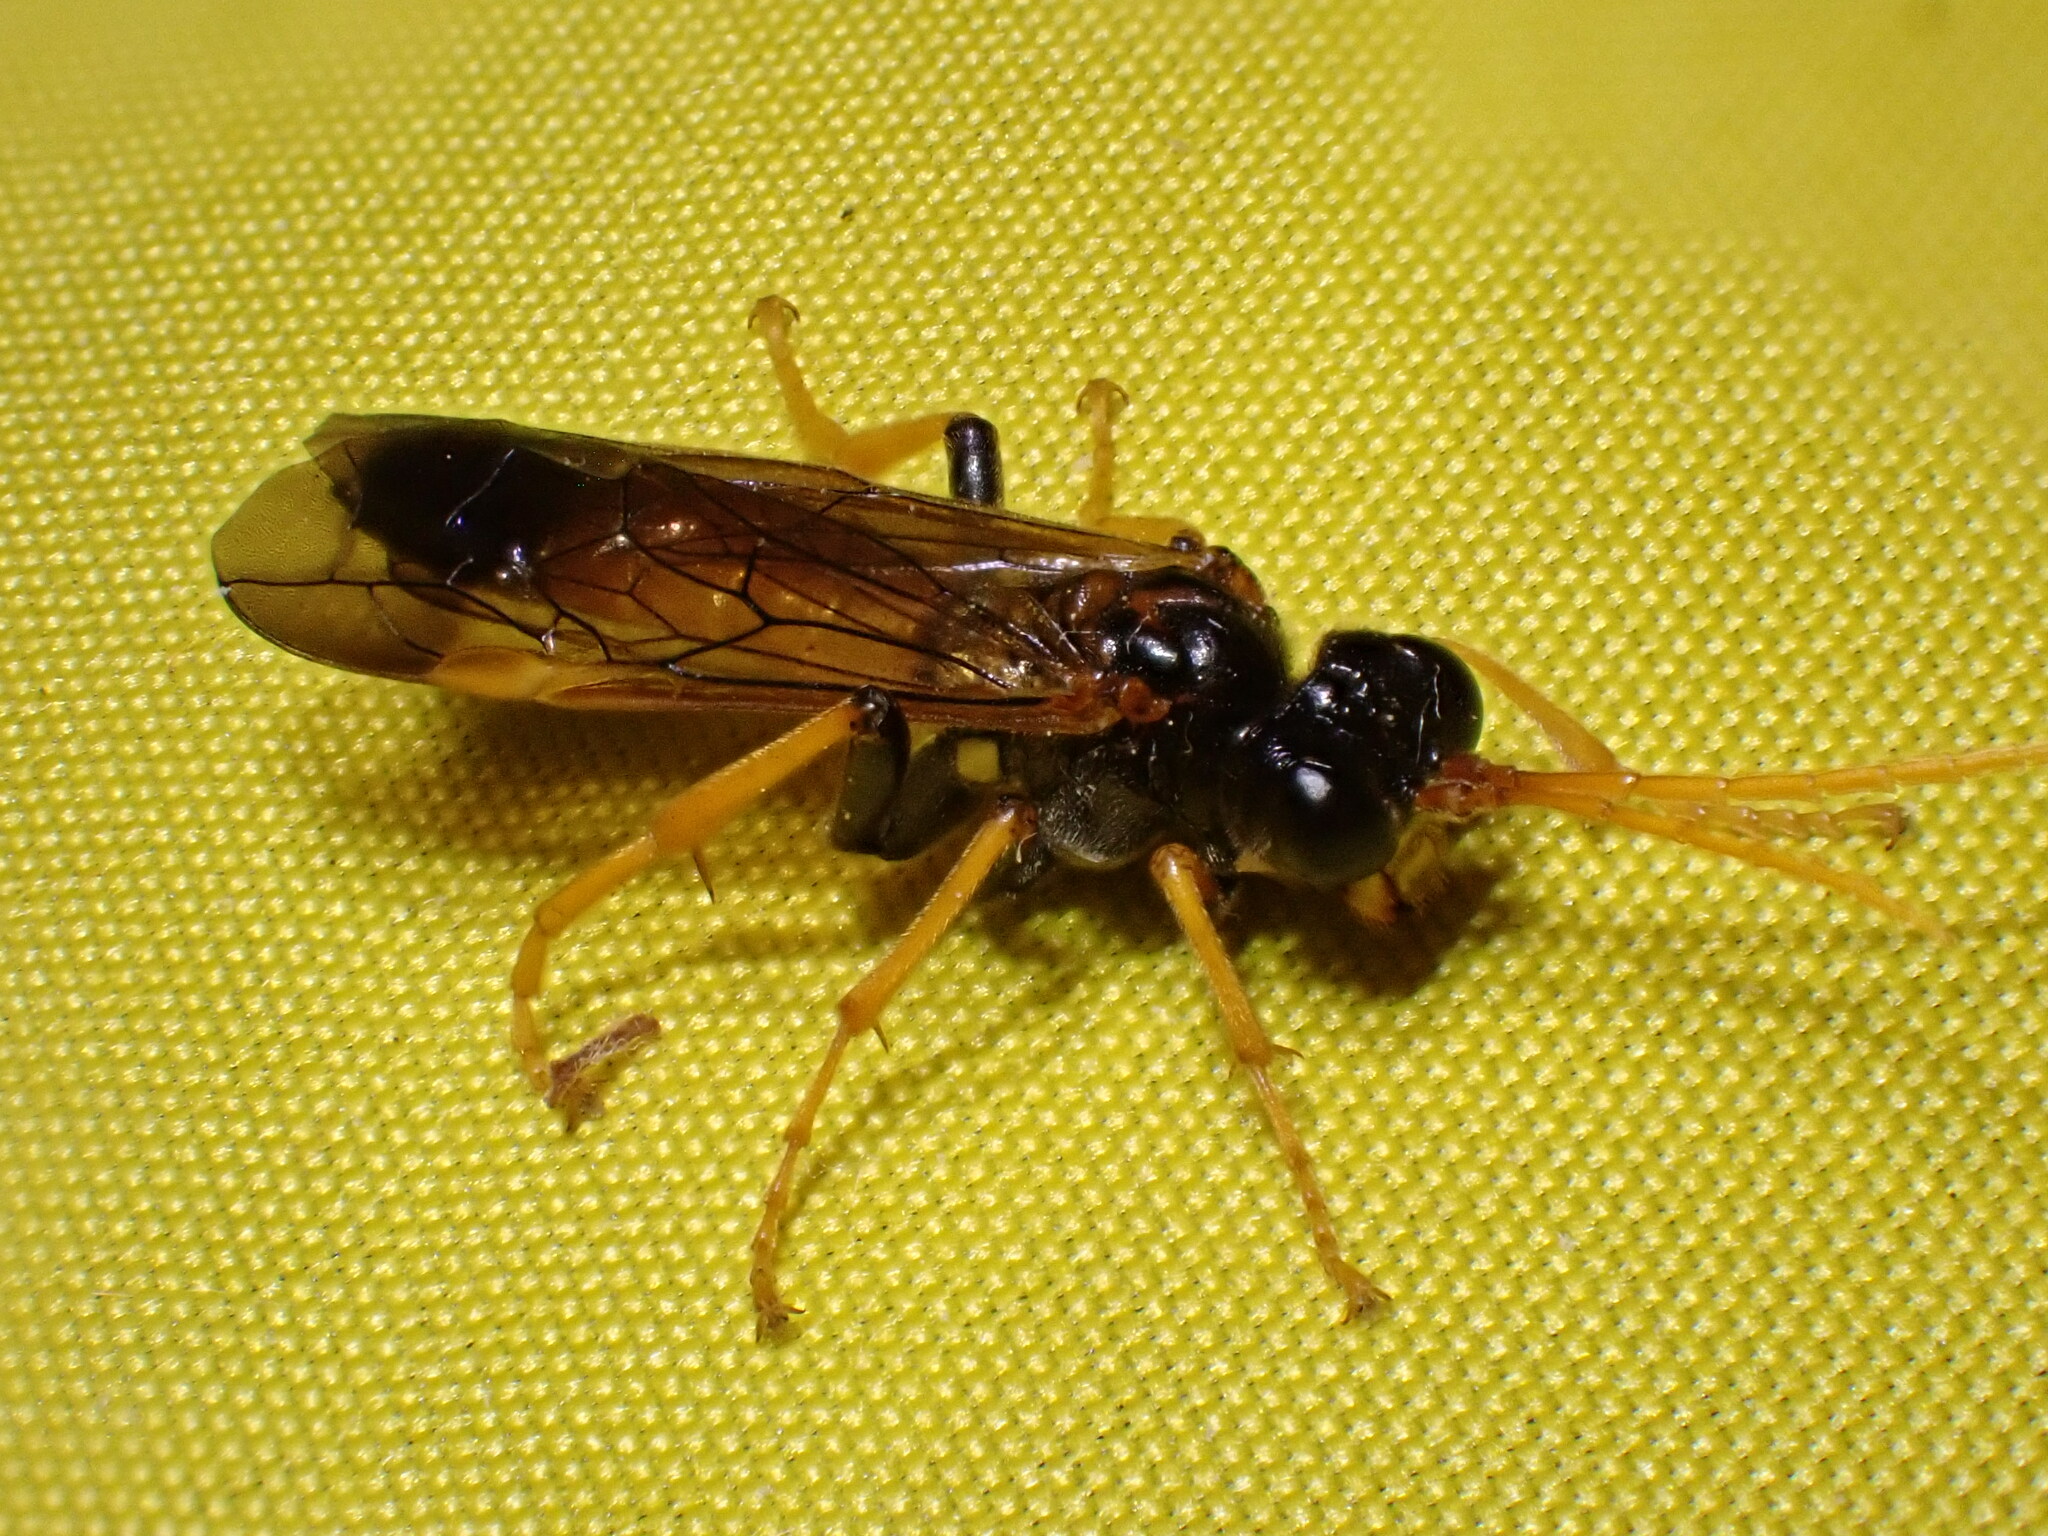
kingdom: Animalia
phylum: Arthropoda
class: Insecta
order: Hymenoptera
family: Tenthredinidae
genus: Tenthredo
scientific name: Tenthredo campestris
